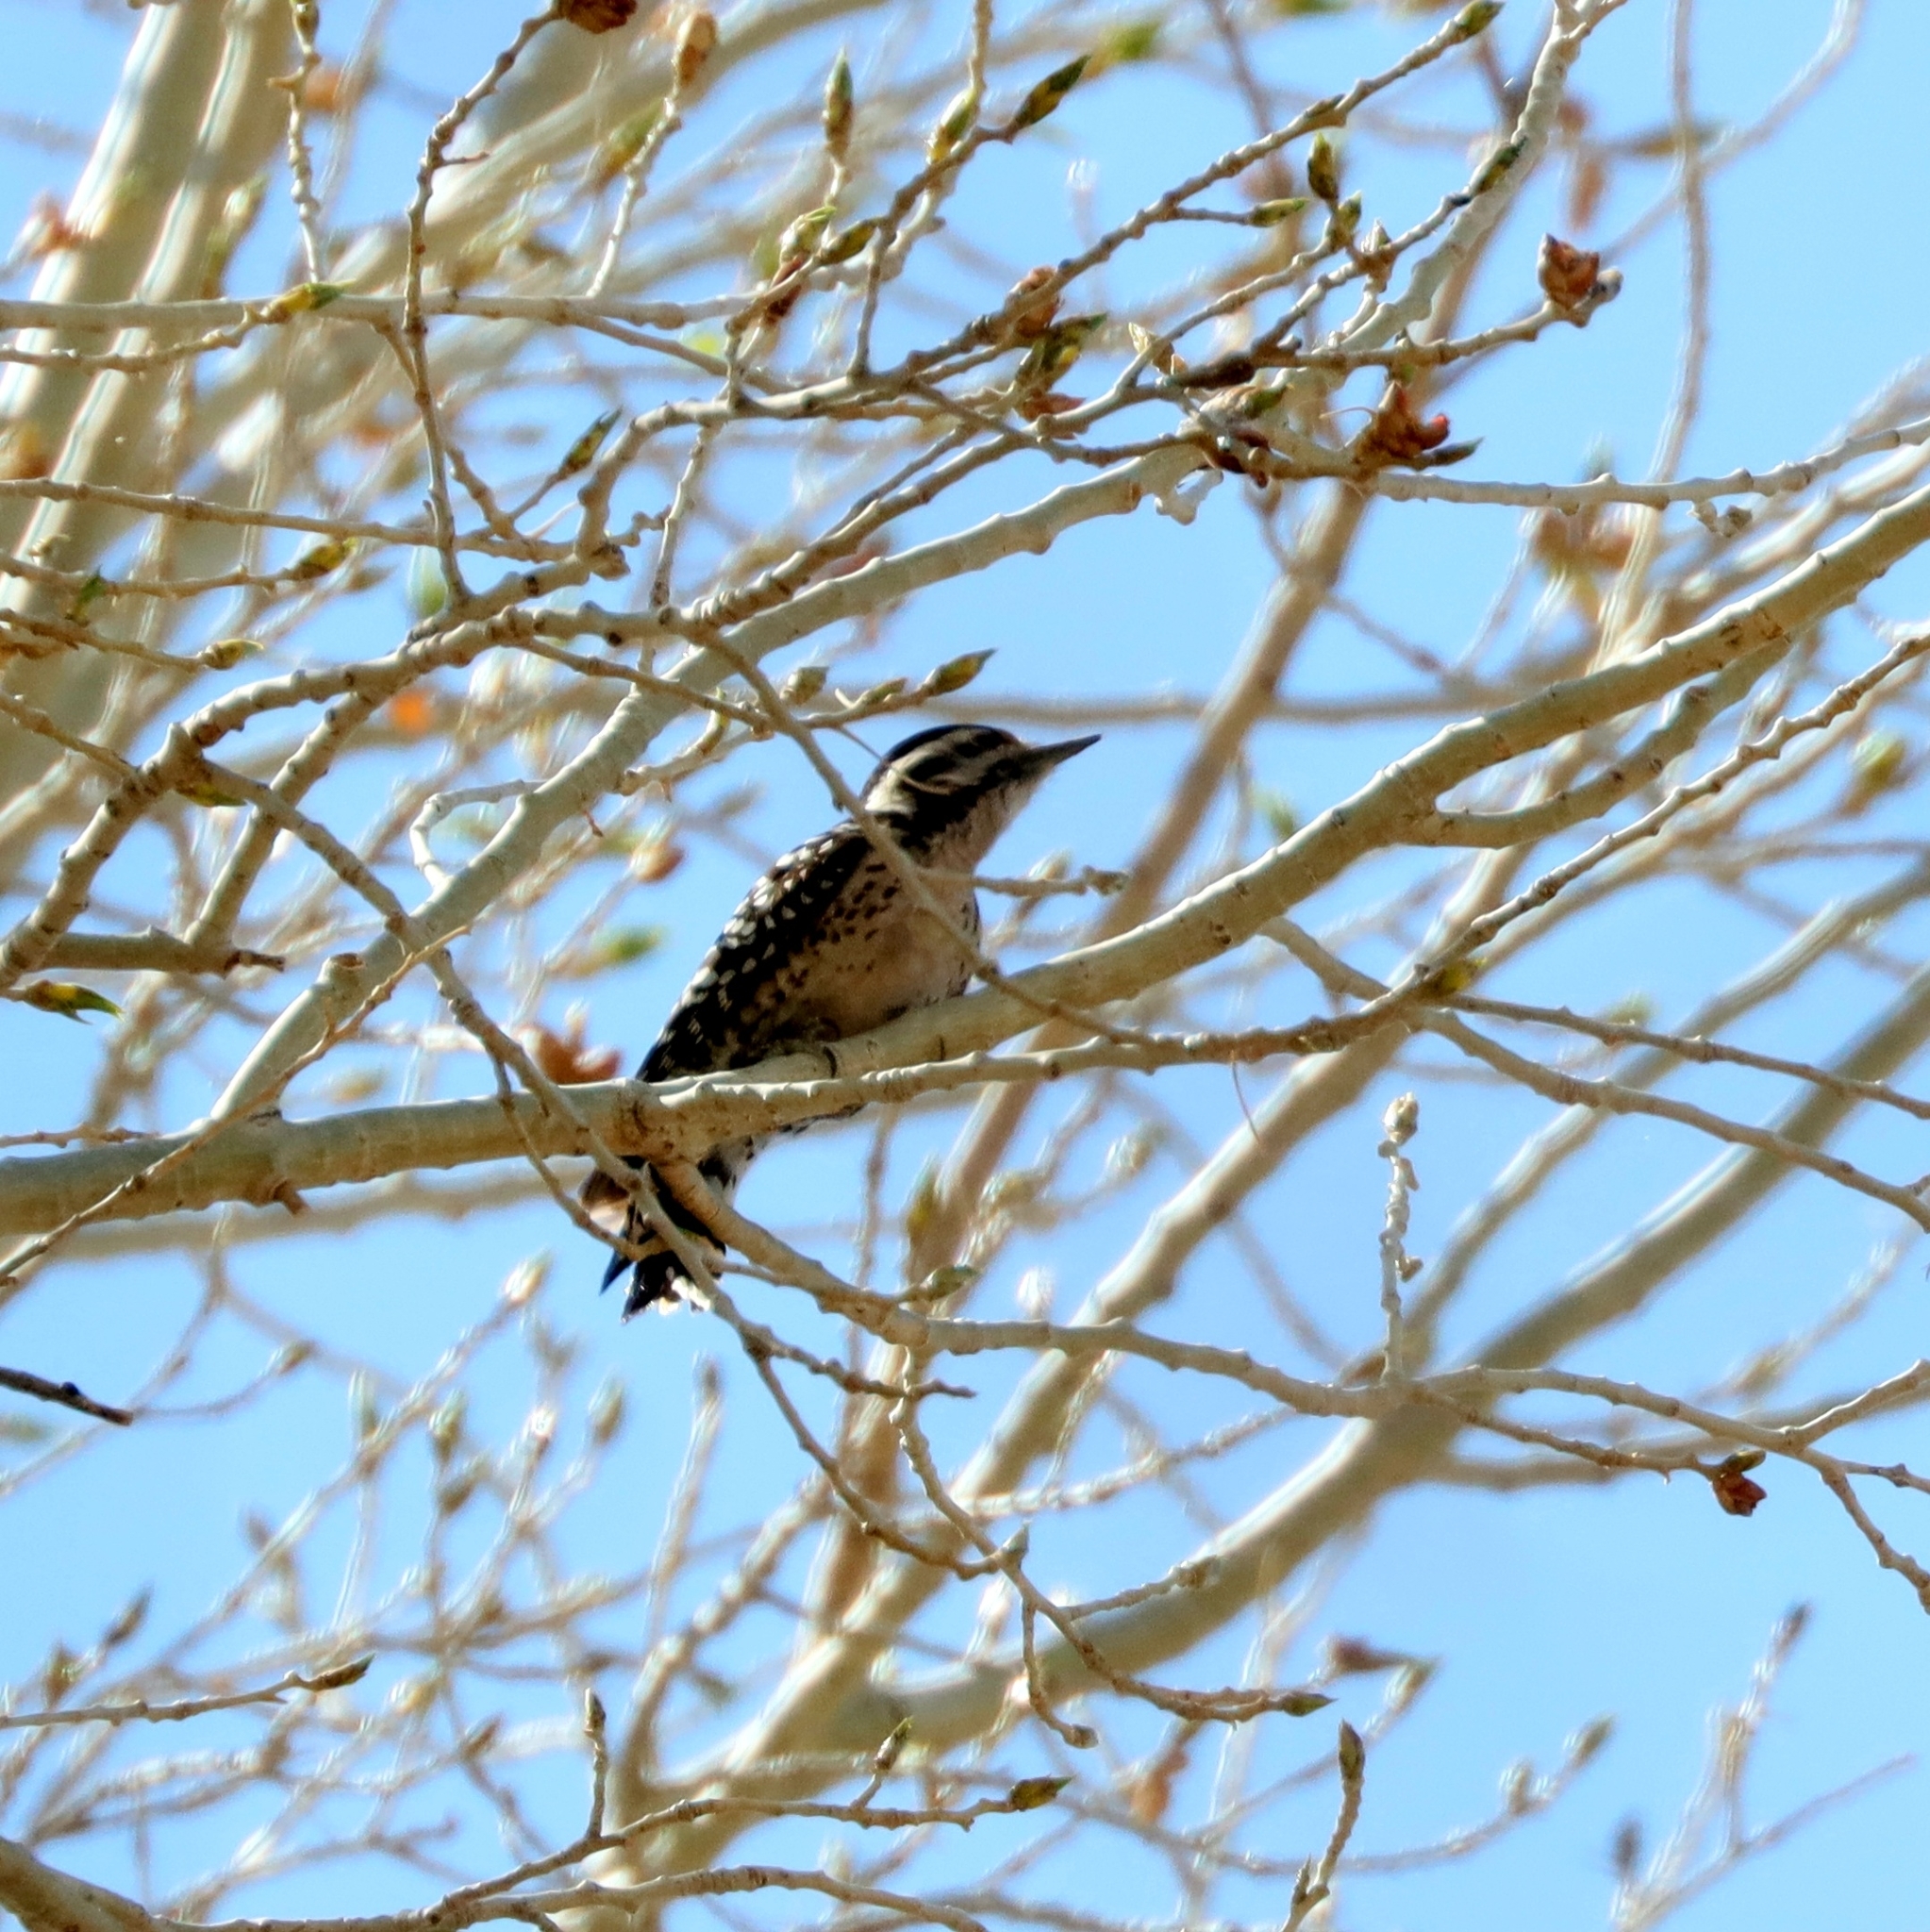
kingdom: Animalia
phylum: Chordata
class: Aves
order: Piciformes
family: Picidae
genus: Dryobates
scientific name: Dryobates scalaris
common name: Ladder-backed woodpecker
